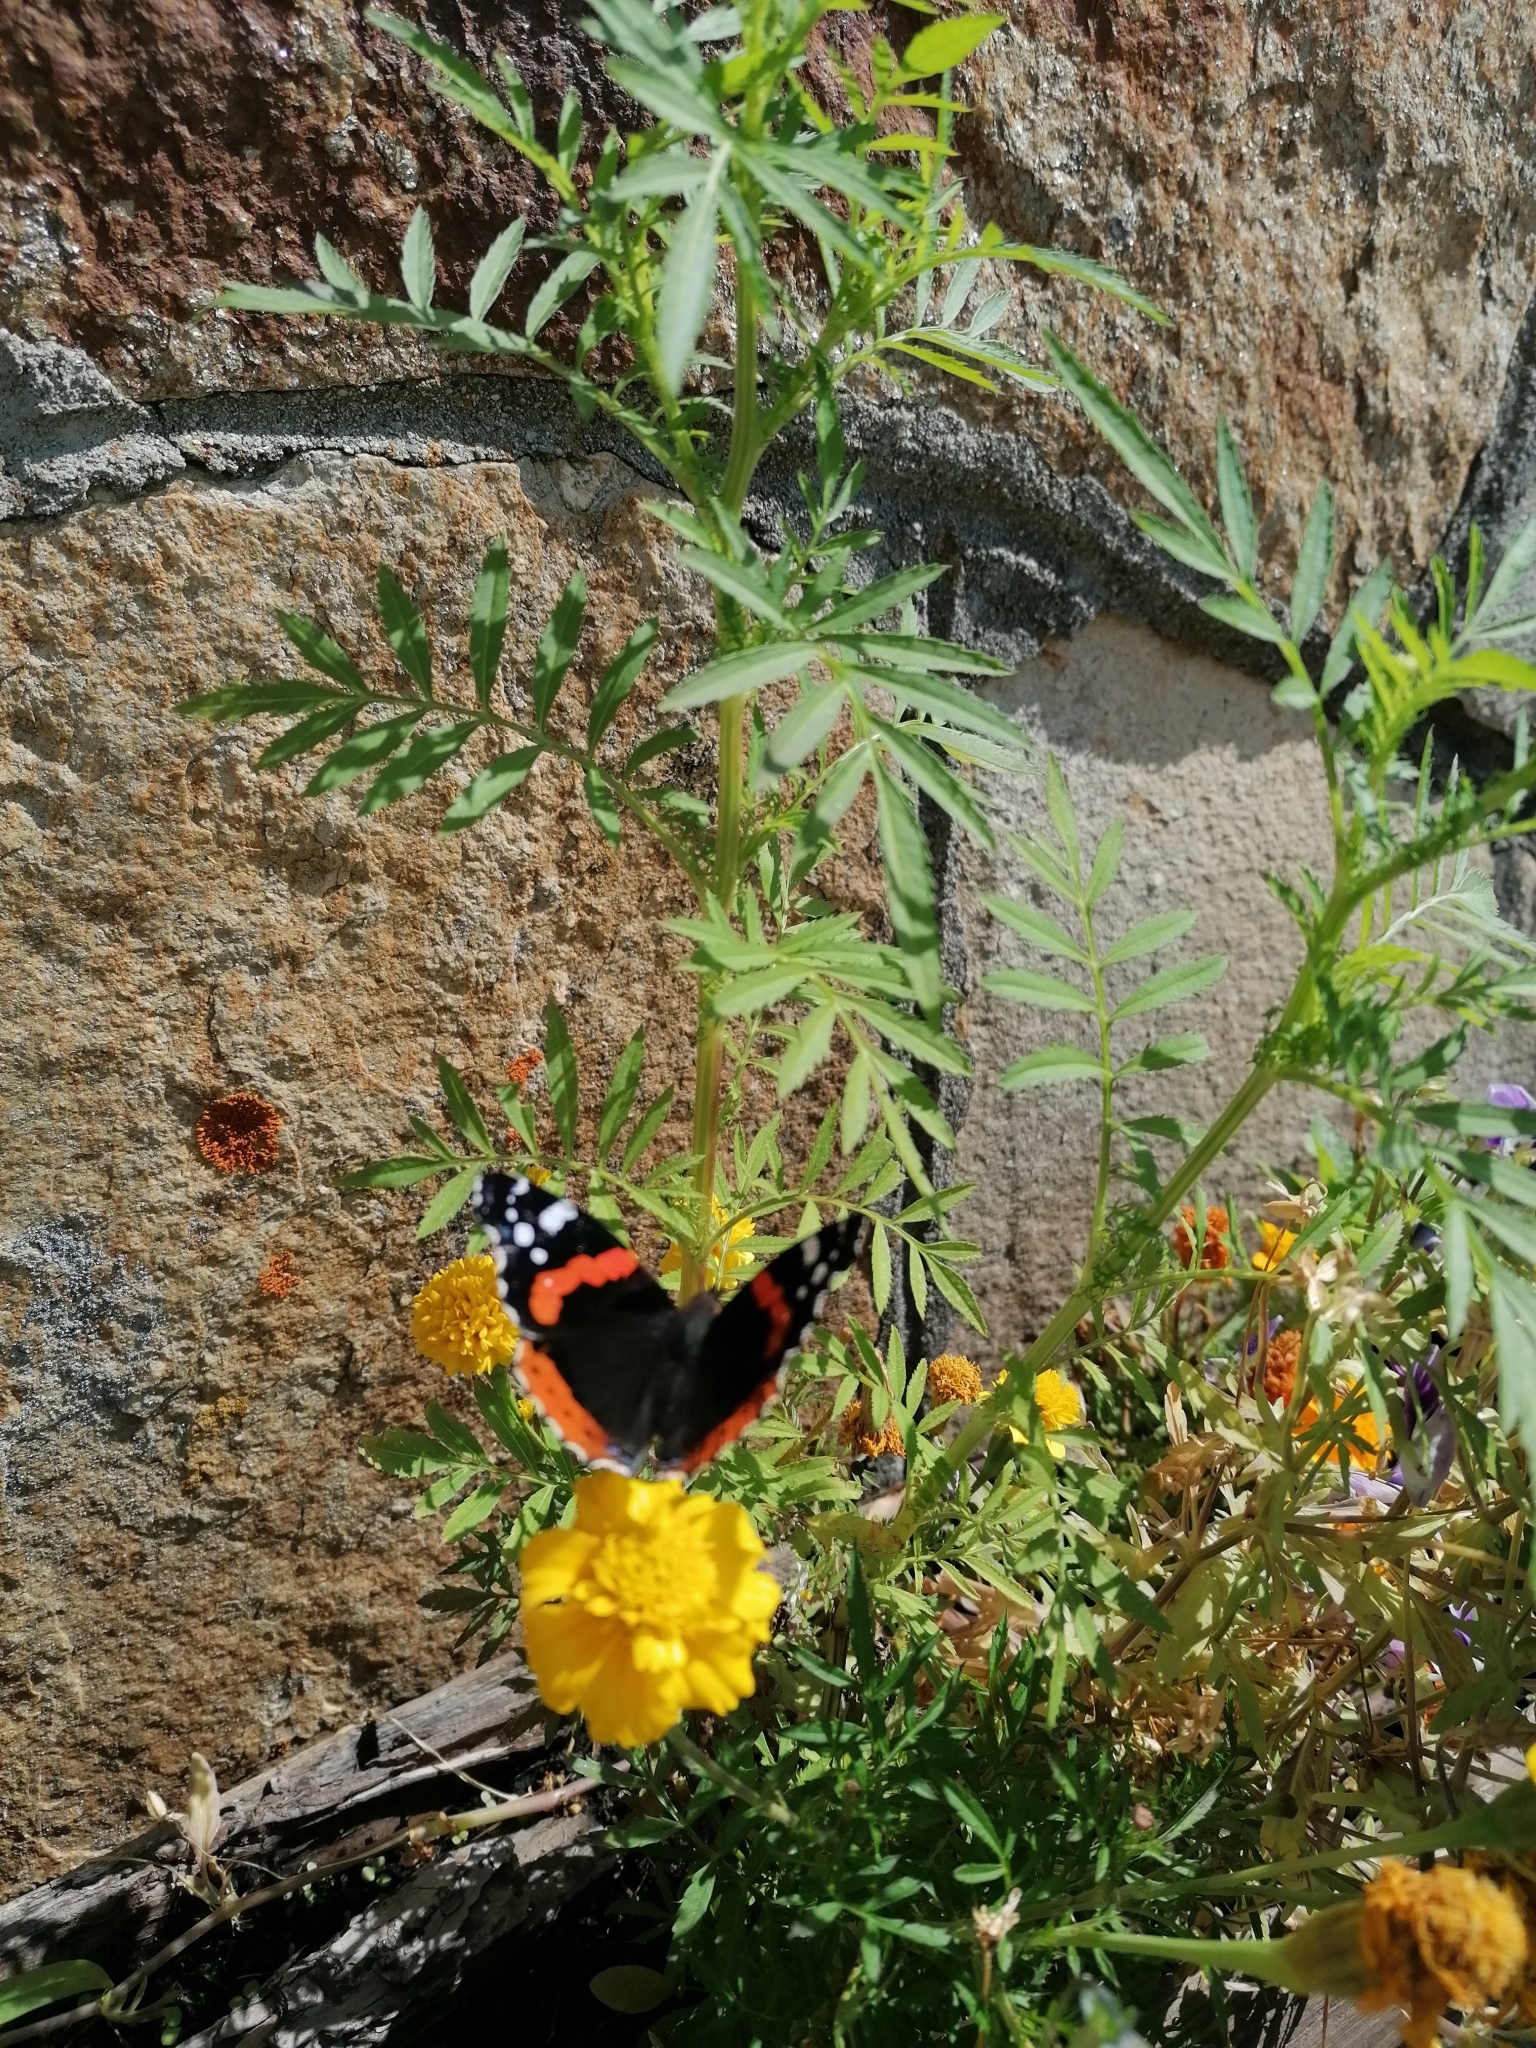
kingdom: Animalia
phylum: Arthropoda
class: Insecta
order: Lepidoptera
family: Nymphalidae
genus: Vanessa
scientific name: Vanessa atalanta
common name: Red admiral
